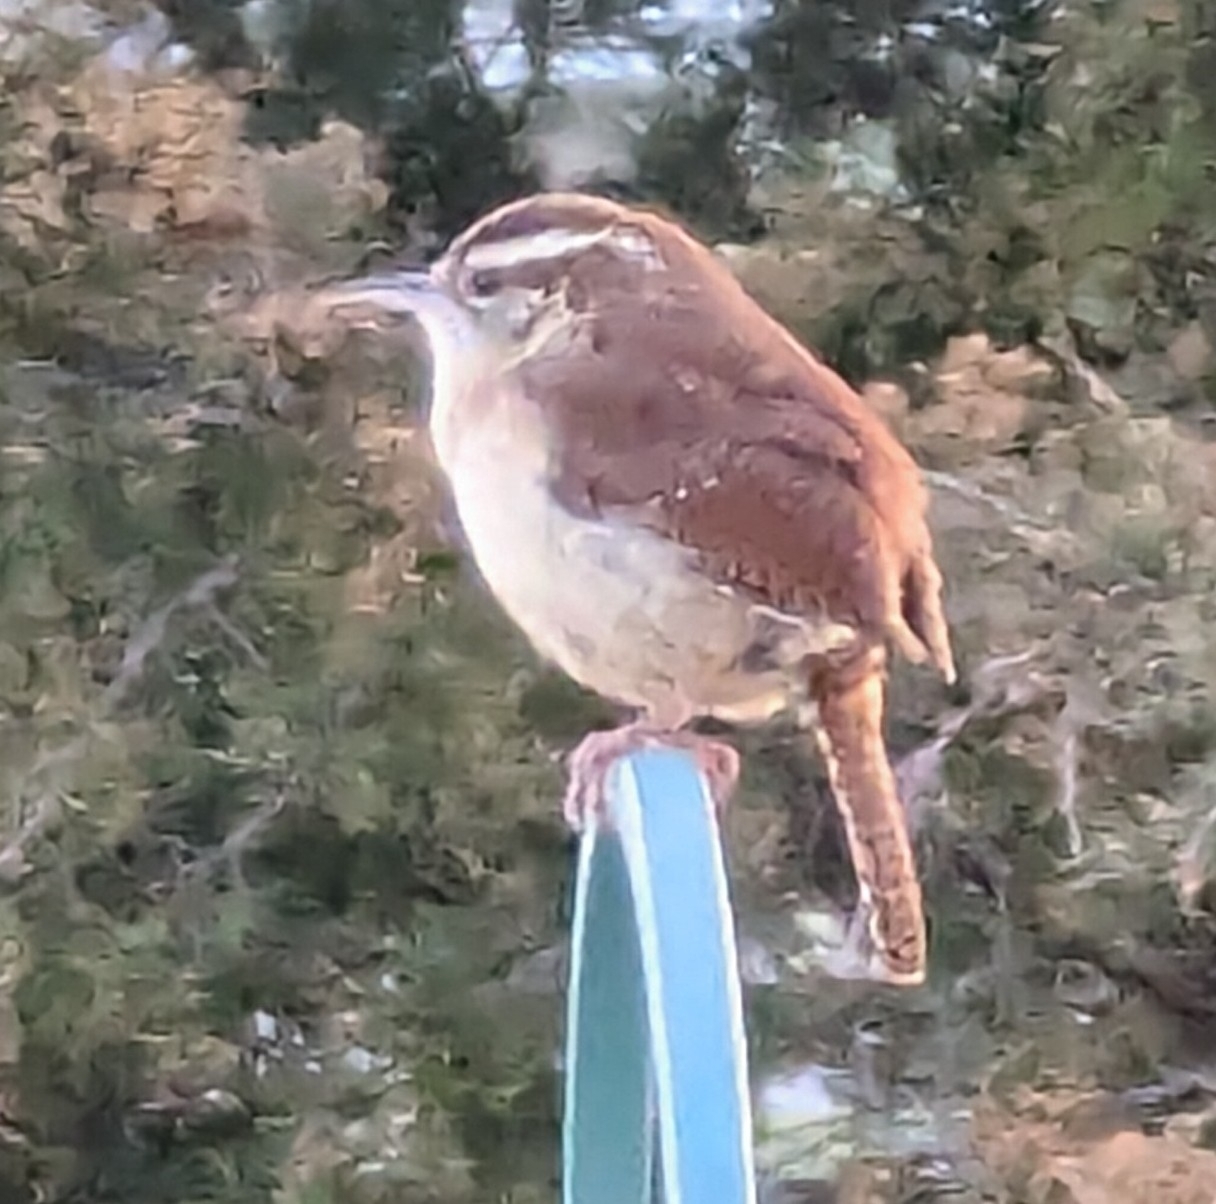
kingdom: Animalia
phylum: Chordata
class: Aves
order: Passeriformes
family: Troglodytidae
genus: Thryothorus
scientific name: Thryothorus ludovicianus
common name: Carolina wren
